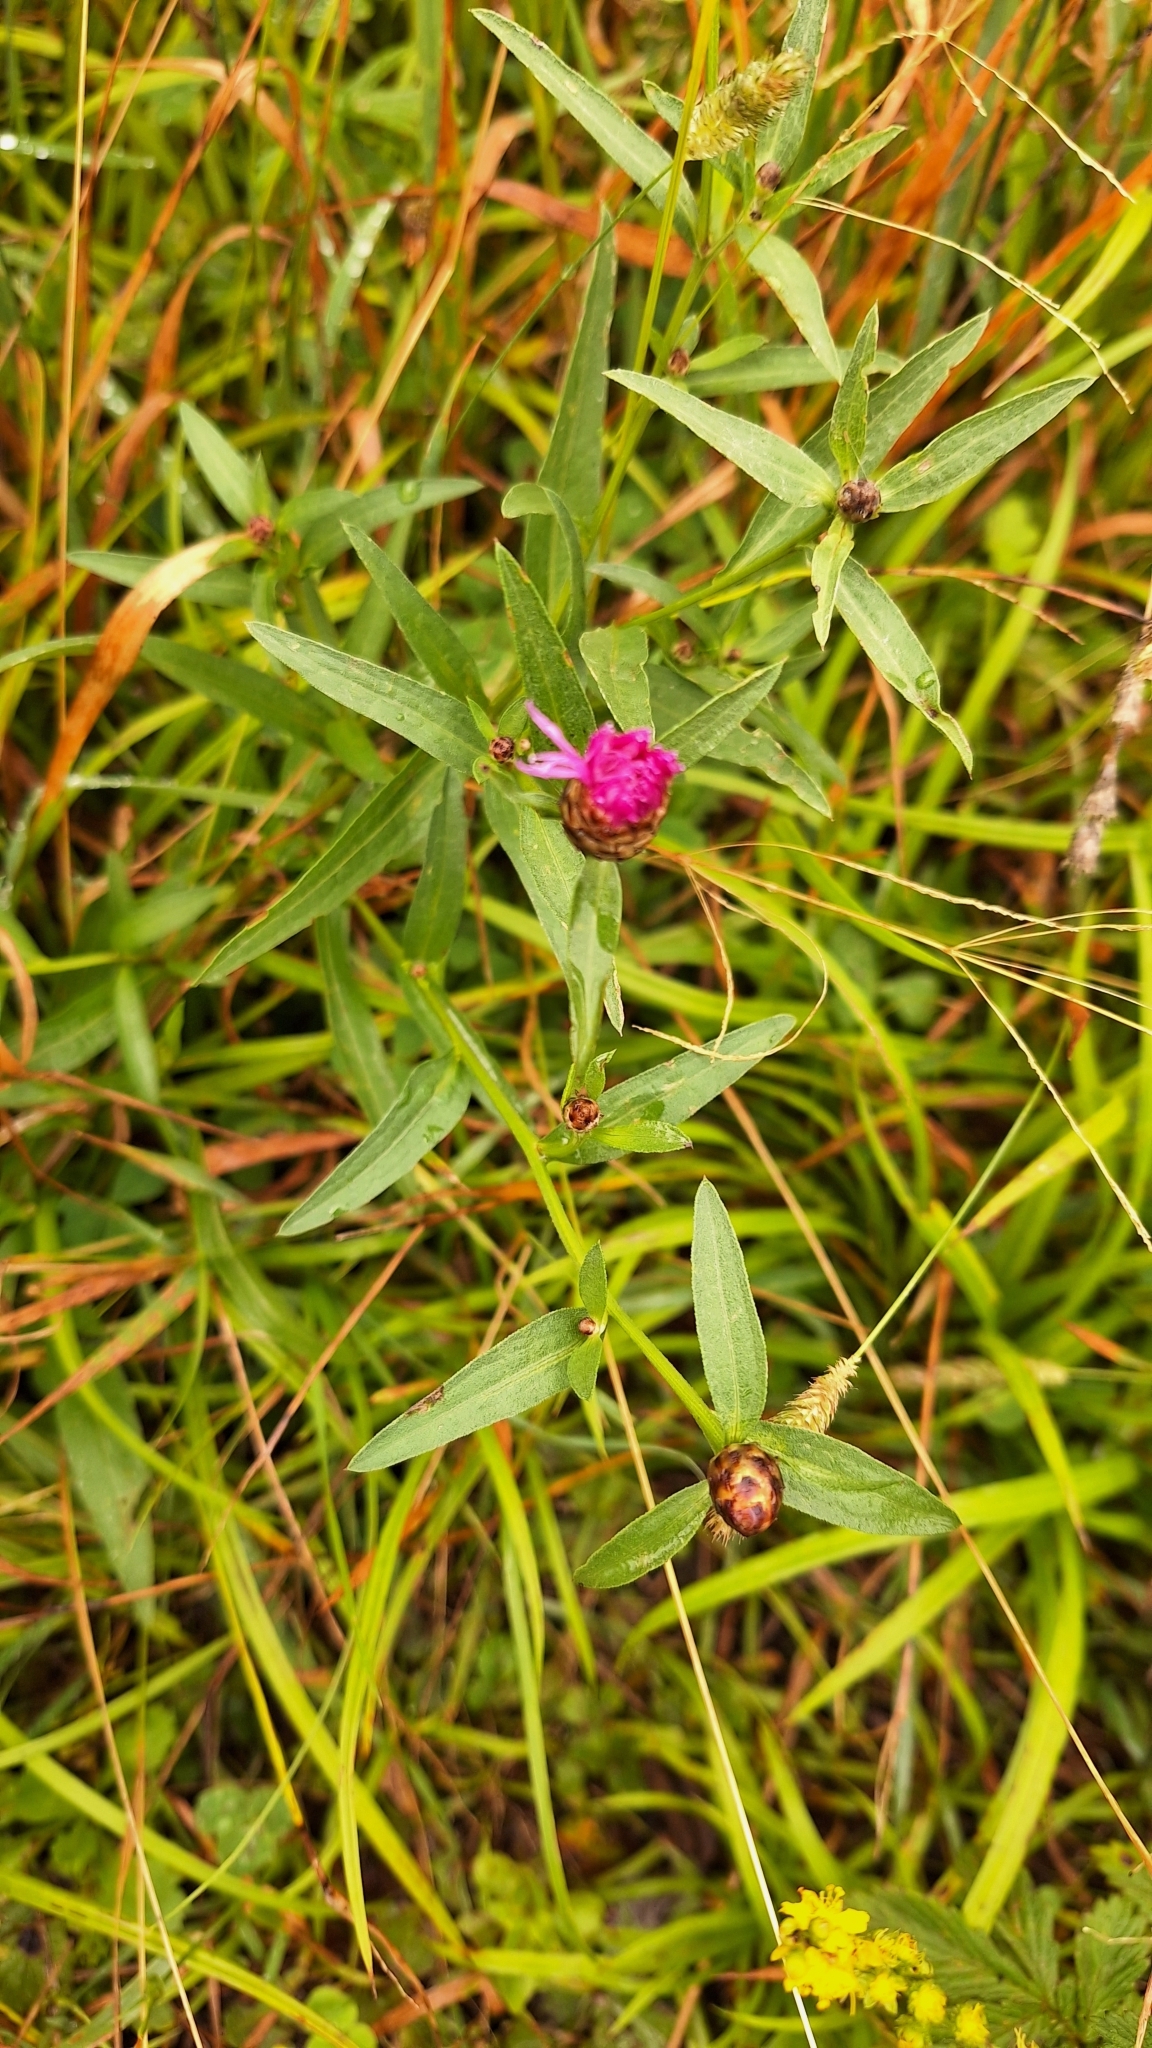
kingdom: Plantae
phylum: Tracheophyta
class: Magnoliopsida
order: Asterales
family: Asteraceae
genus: Centaurea
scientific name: Centaurea jacea
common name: Brown knapweed
